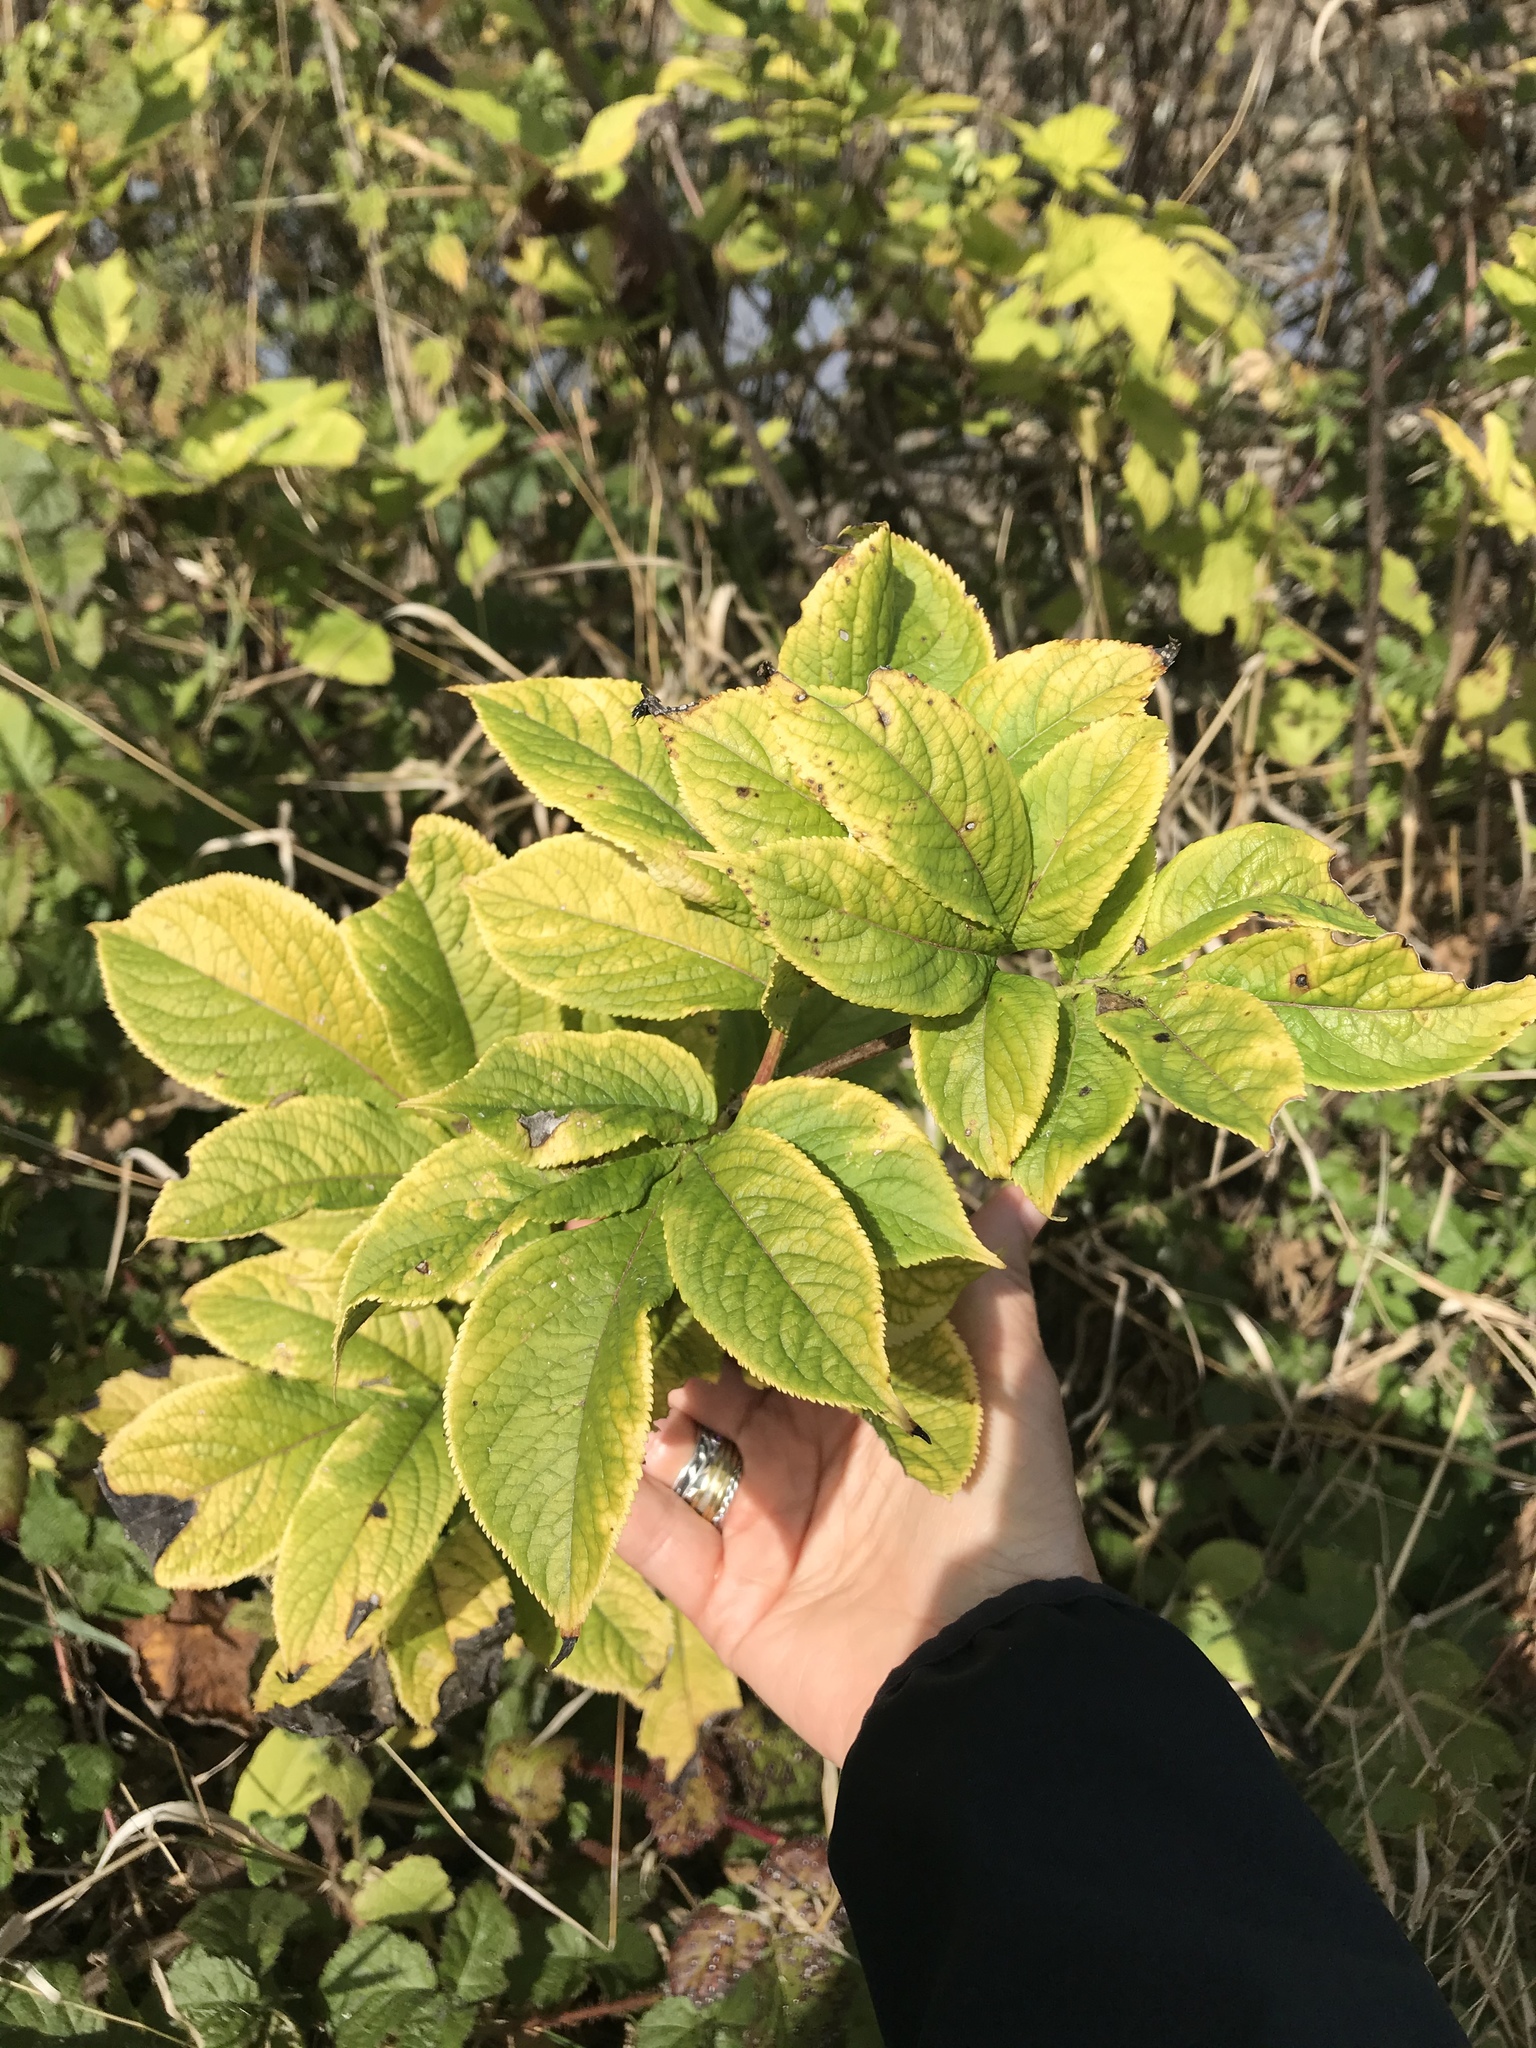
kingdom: Plantae
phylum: Tracheophyta
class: Magnoliopsida
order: Dipsacales
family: Viburnaceae
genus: Sambucus
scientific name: Sambucus racemosa
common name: Red-berried elder
